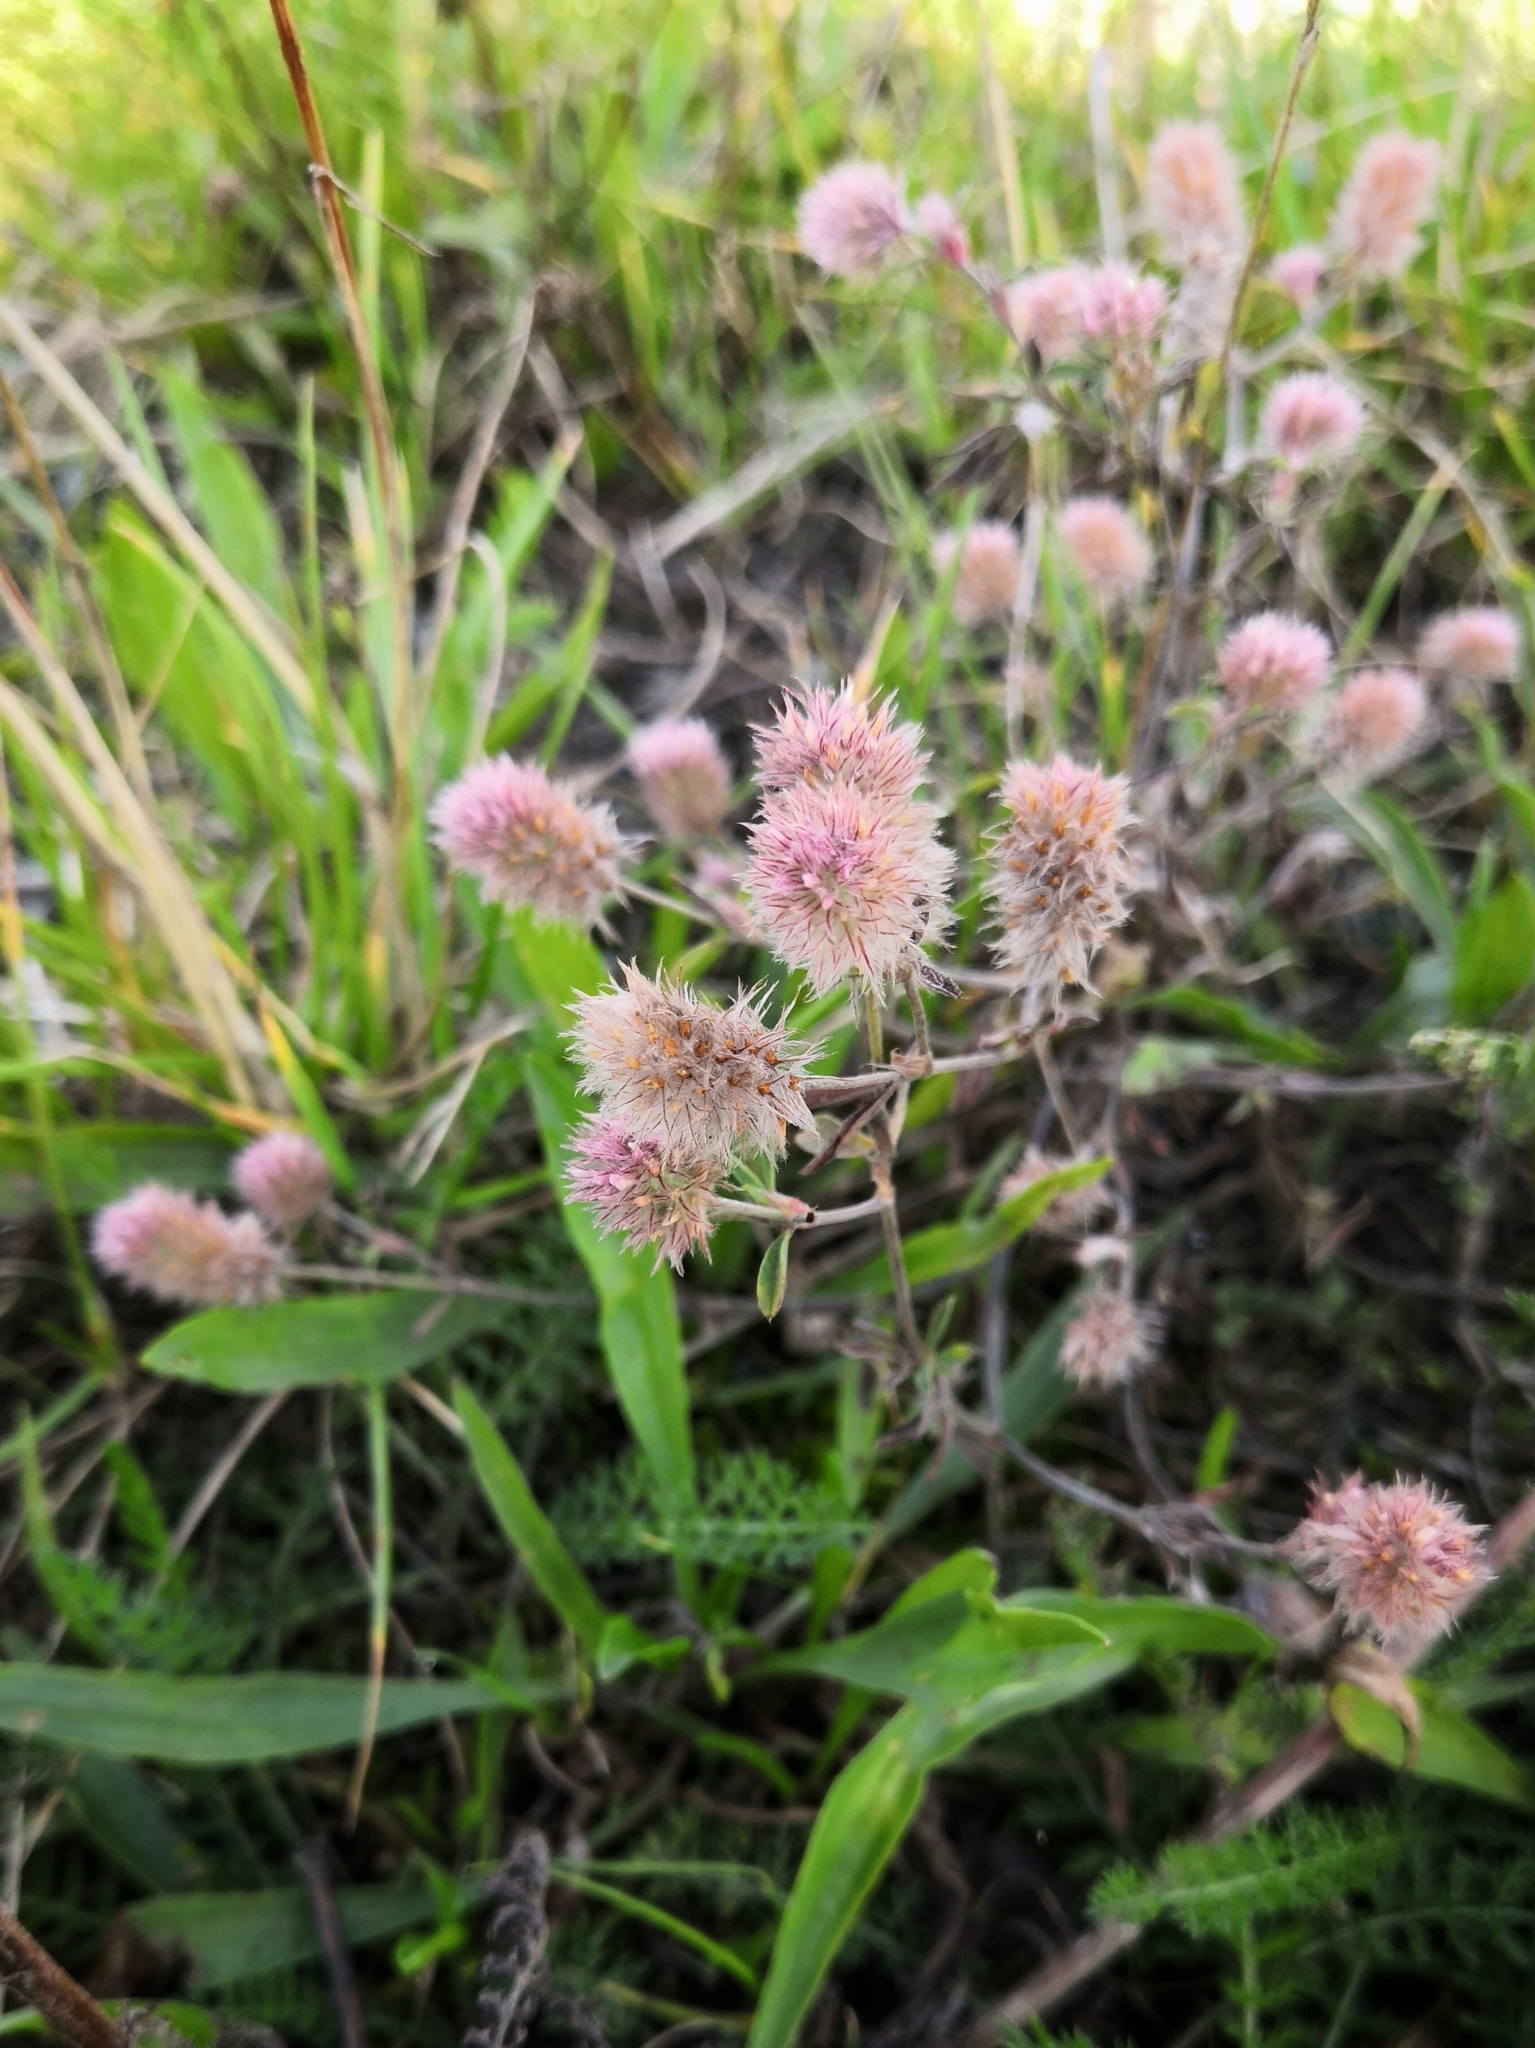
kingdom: Plantae
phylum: Tracheophyta
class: Magnoliopsida
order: Fabales
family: Fabaceae
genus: Trifolium
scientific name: Trifolium arvense
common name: Hare's-foot clover
